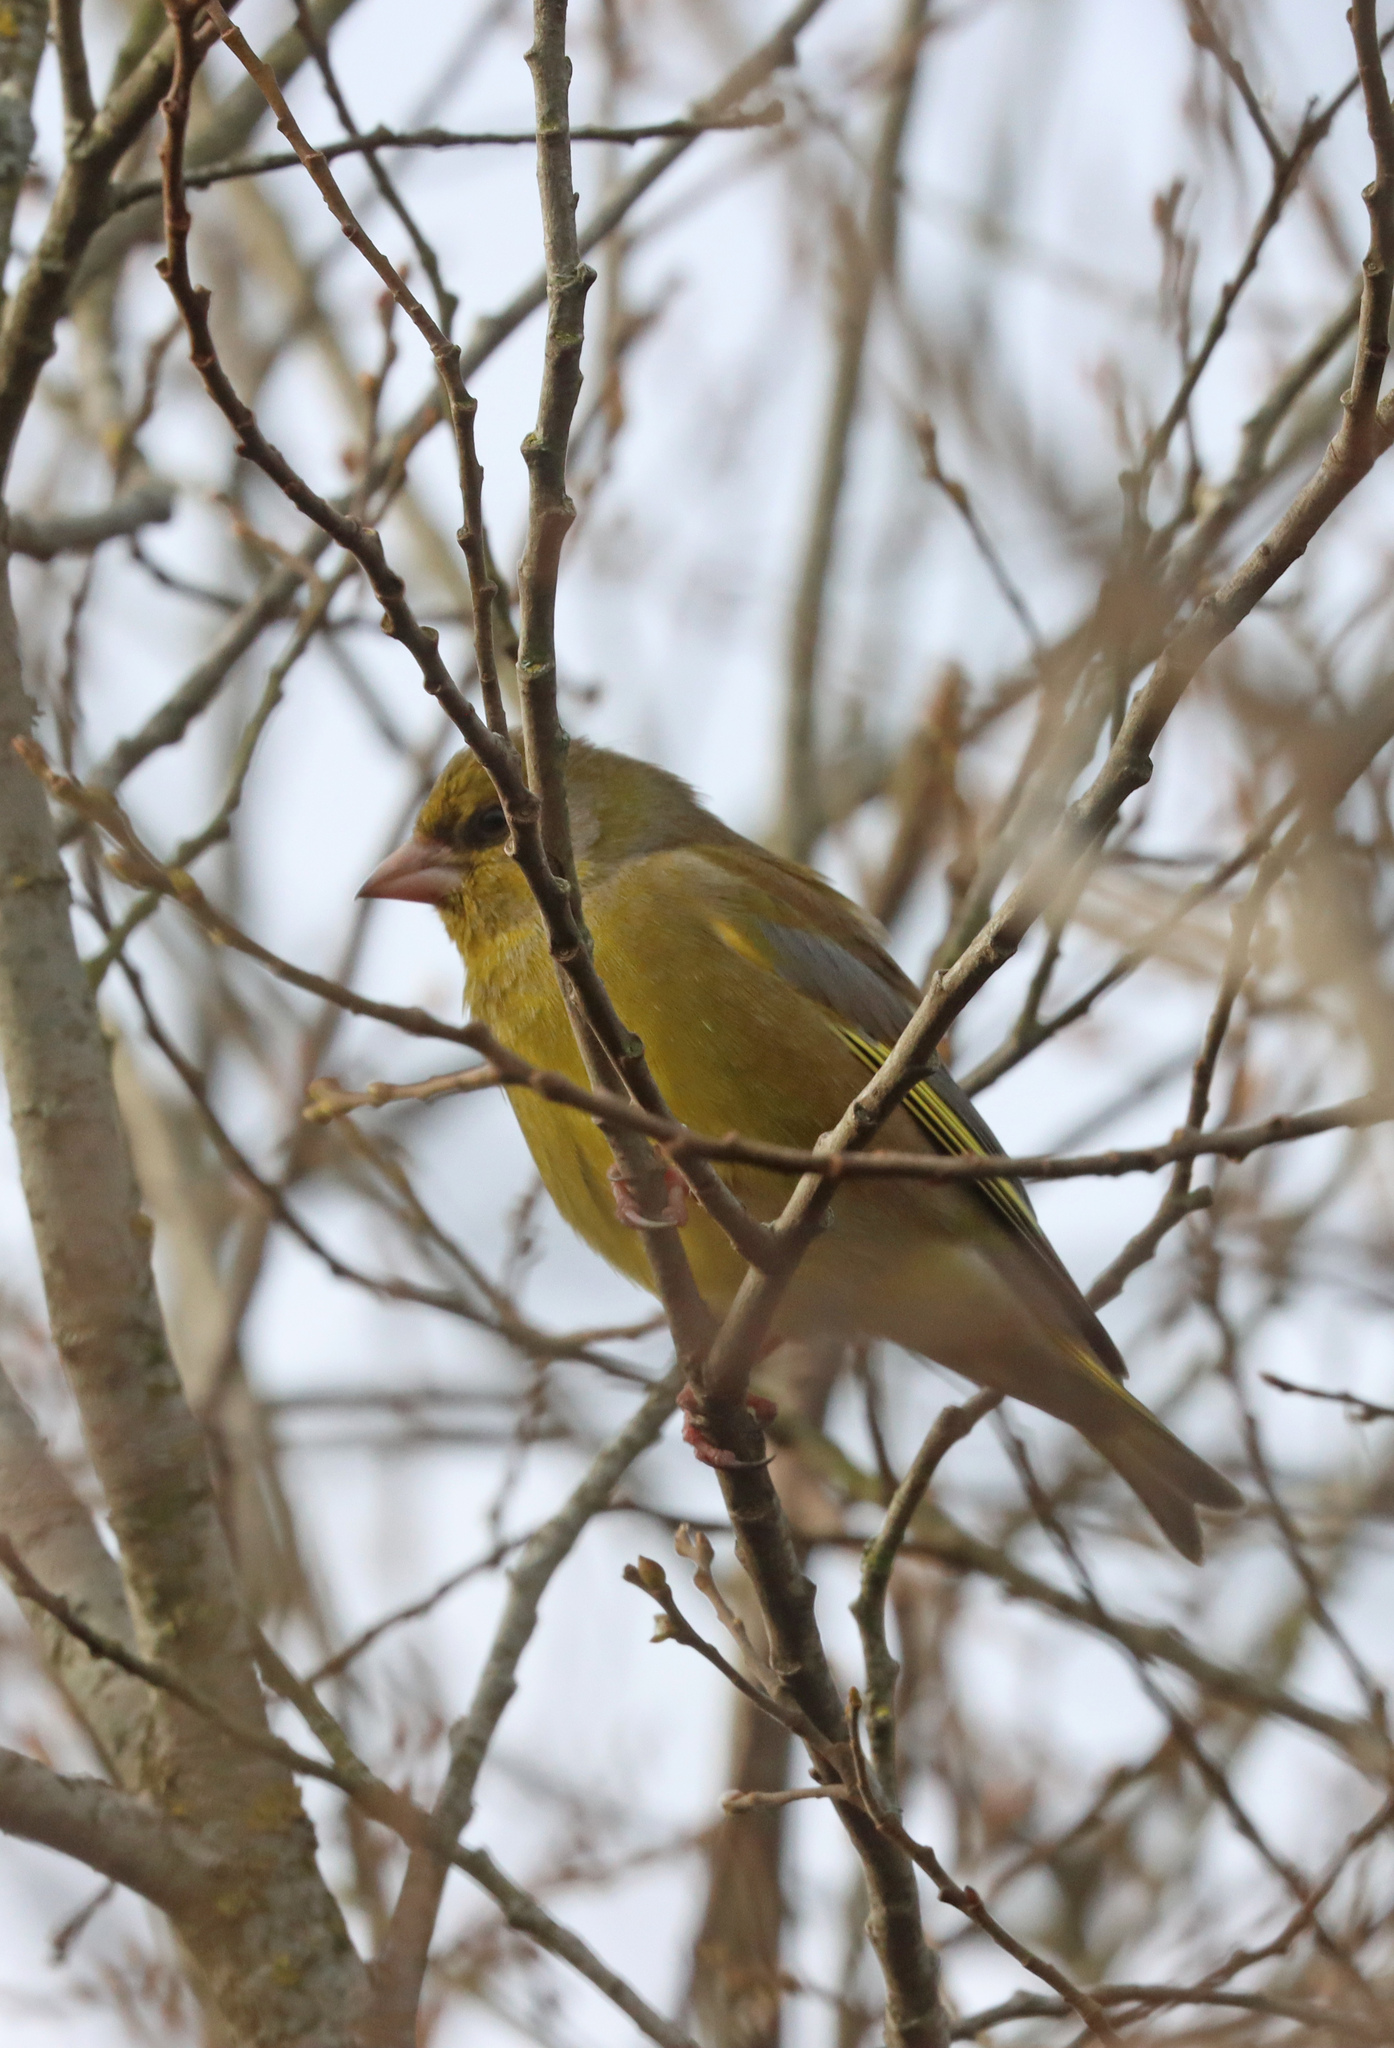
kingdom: Plantae
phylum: Tracheophyta
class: Liliopsida
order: Poales
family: Poaceae
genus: Chloris
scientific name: Chloris chloris
